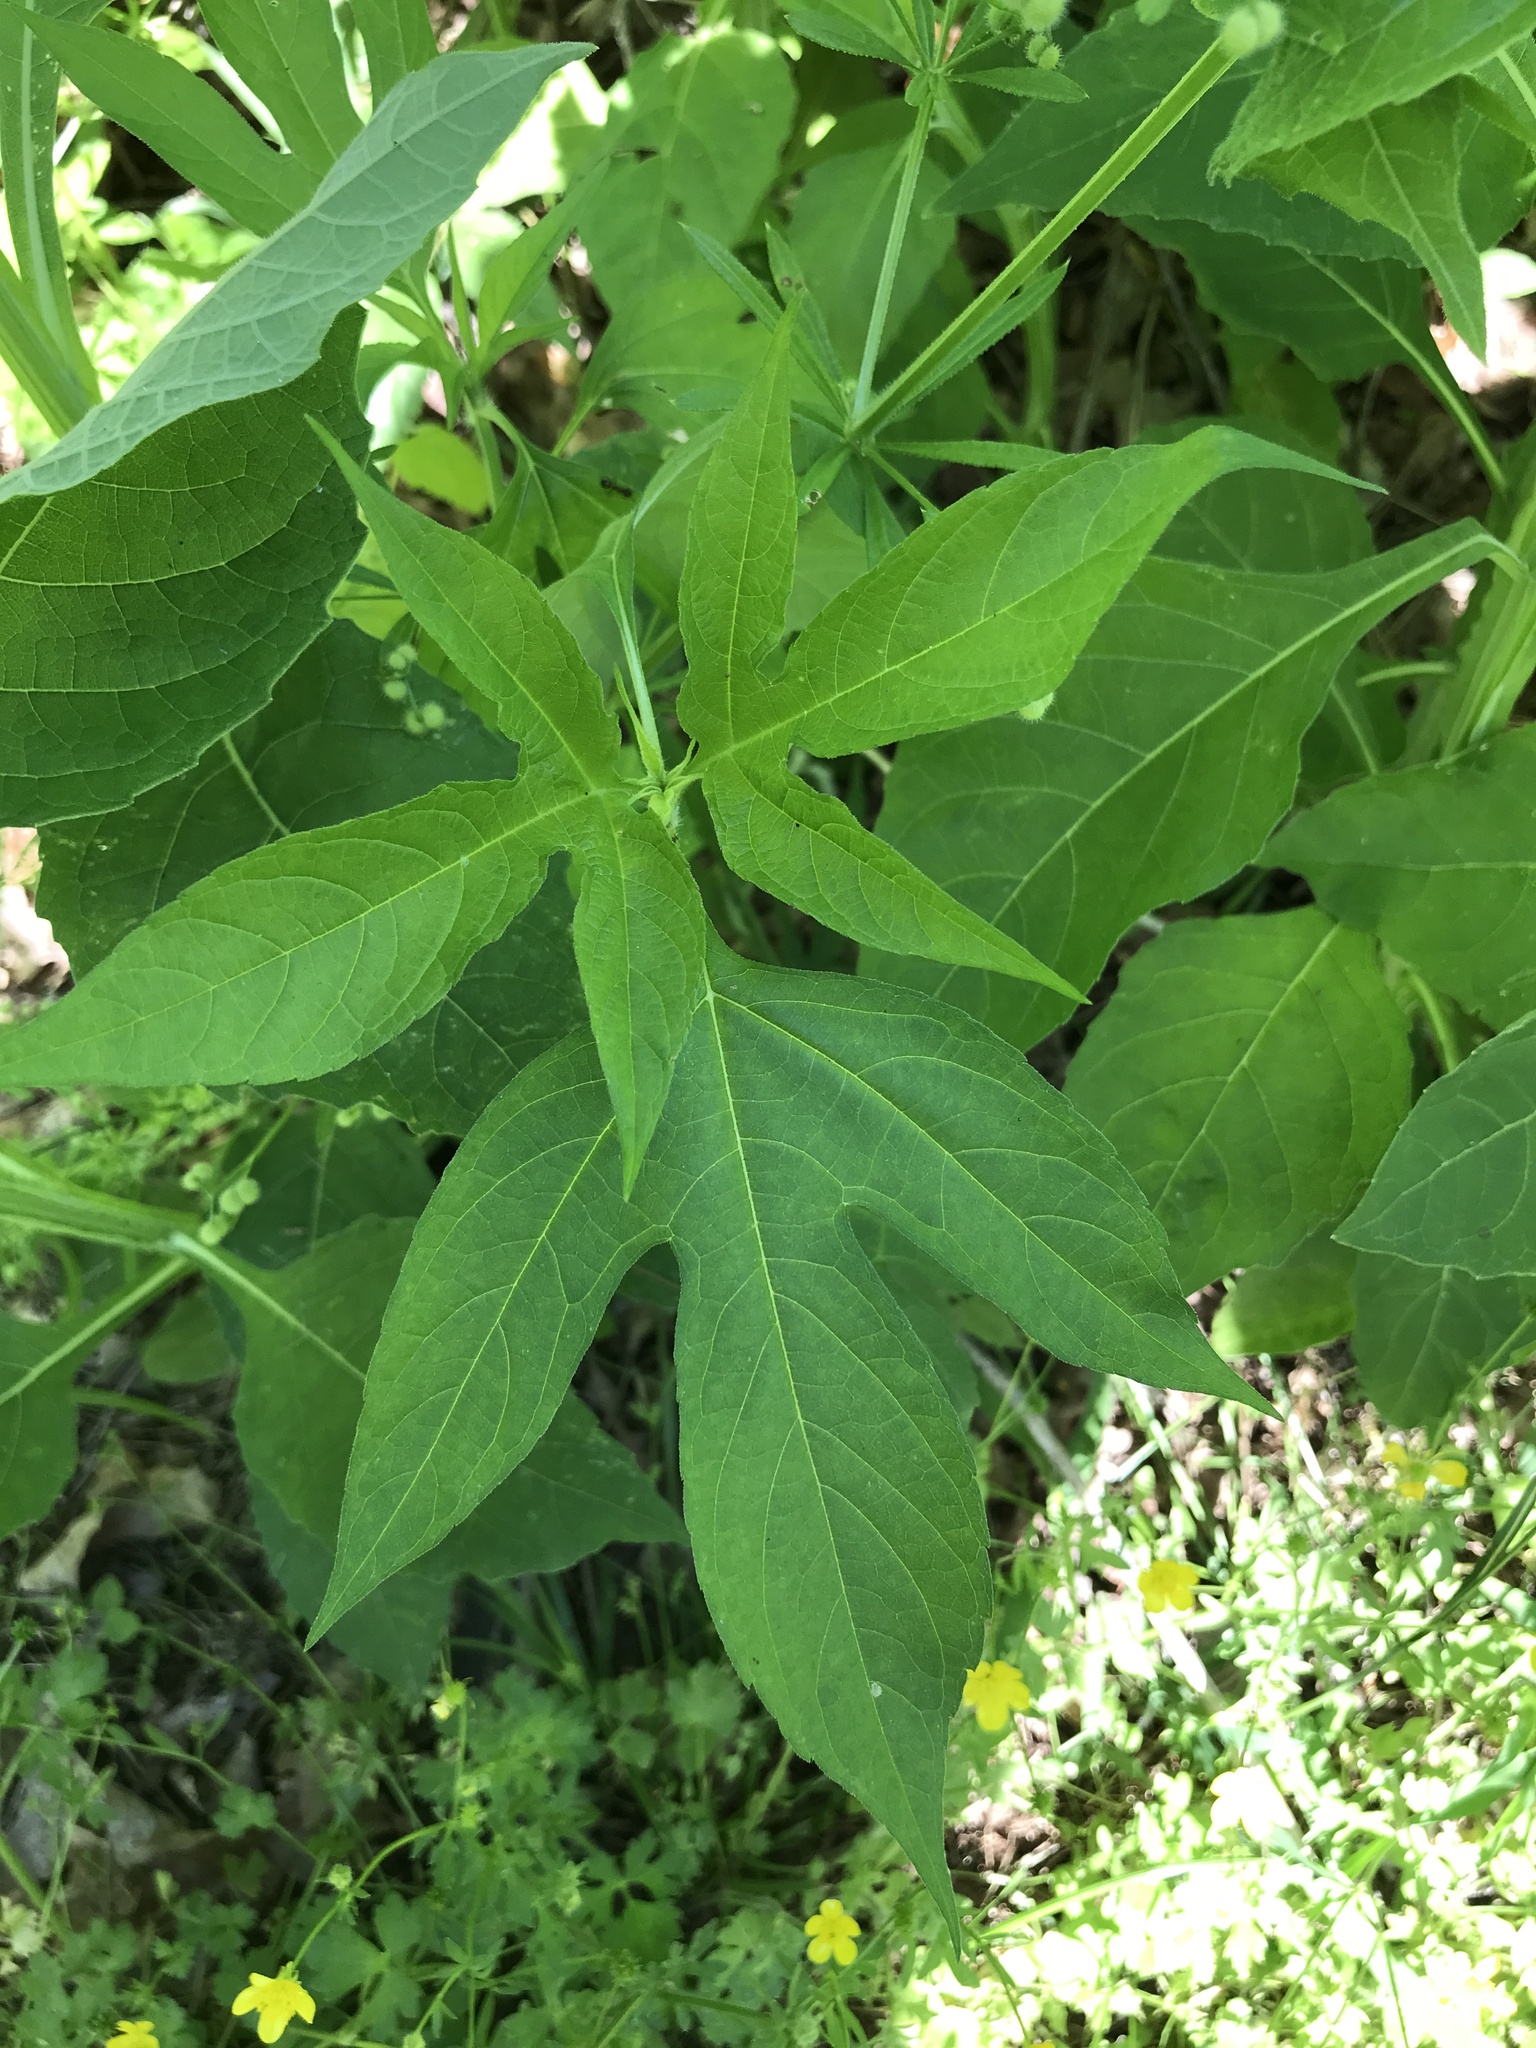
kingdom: Plantae
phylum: Tracheophyta
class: Magnoliopsida
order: Asterales
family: Asteraceae
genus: Ambrosia
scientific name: Ambrosia trifida
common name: Giant ragweed
